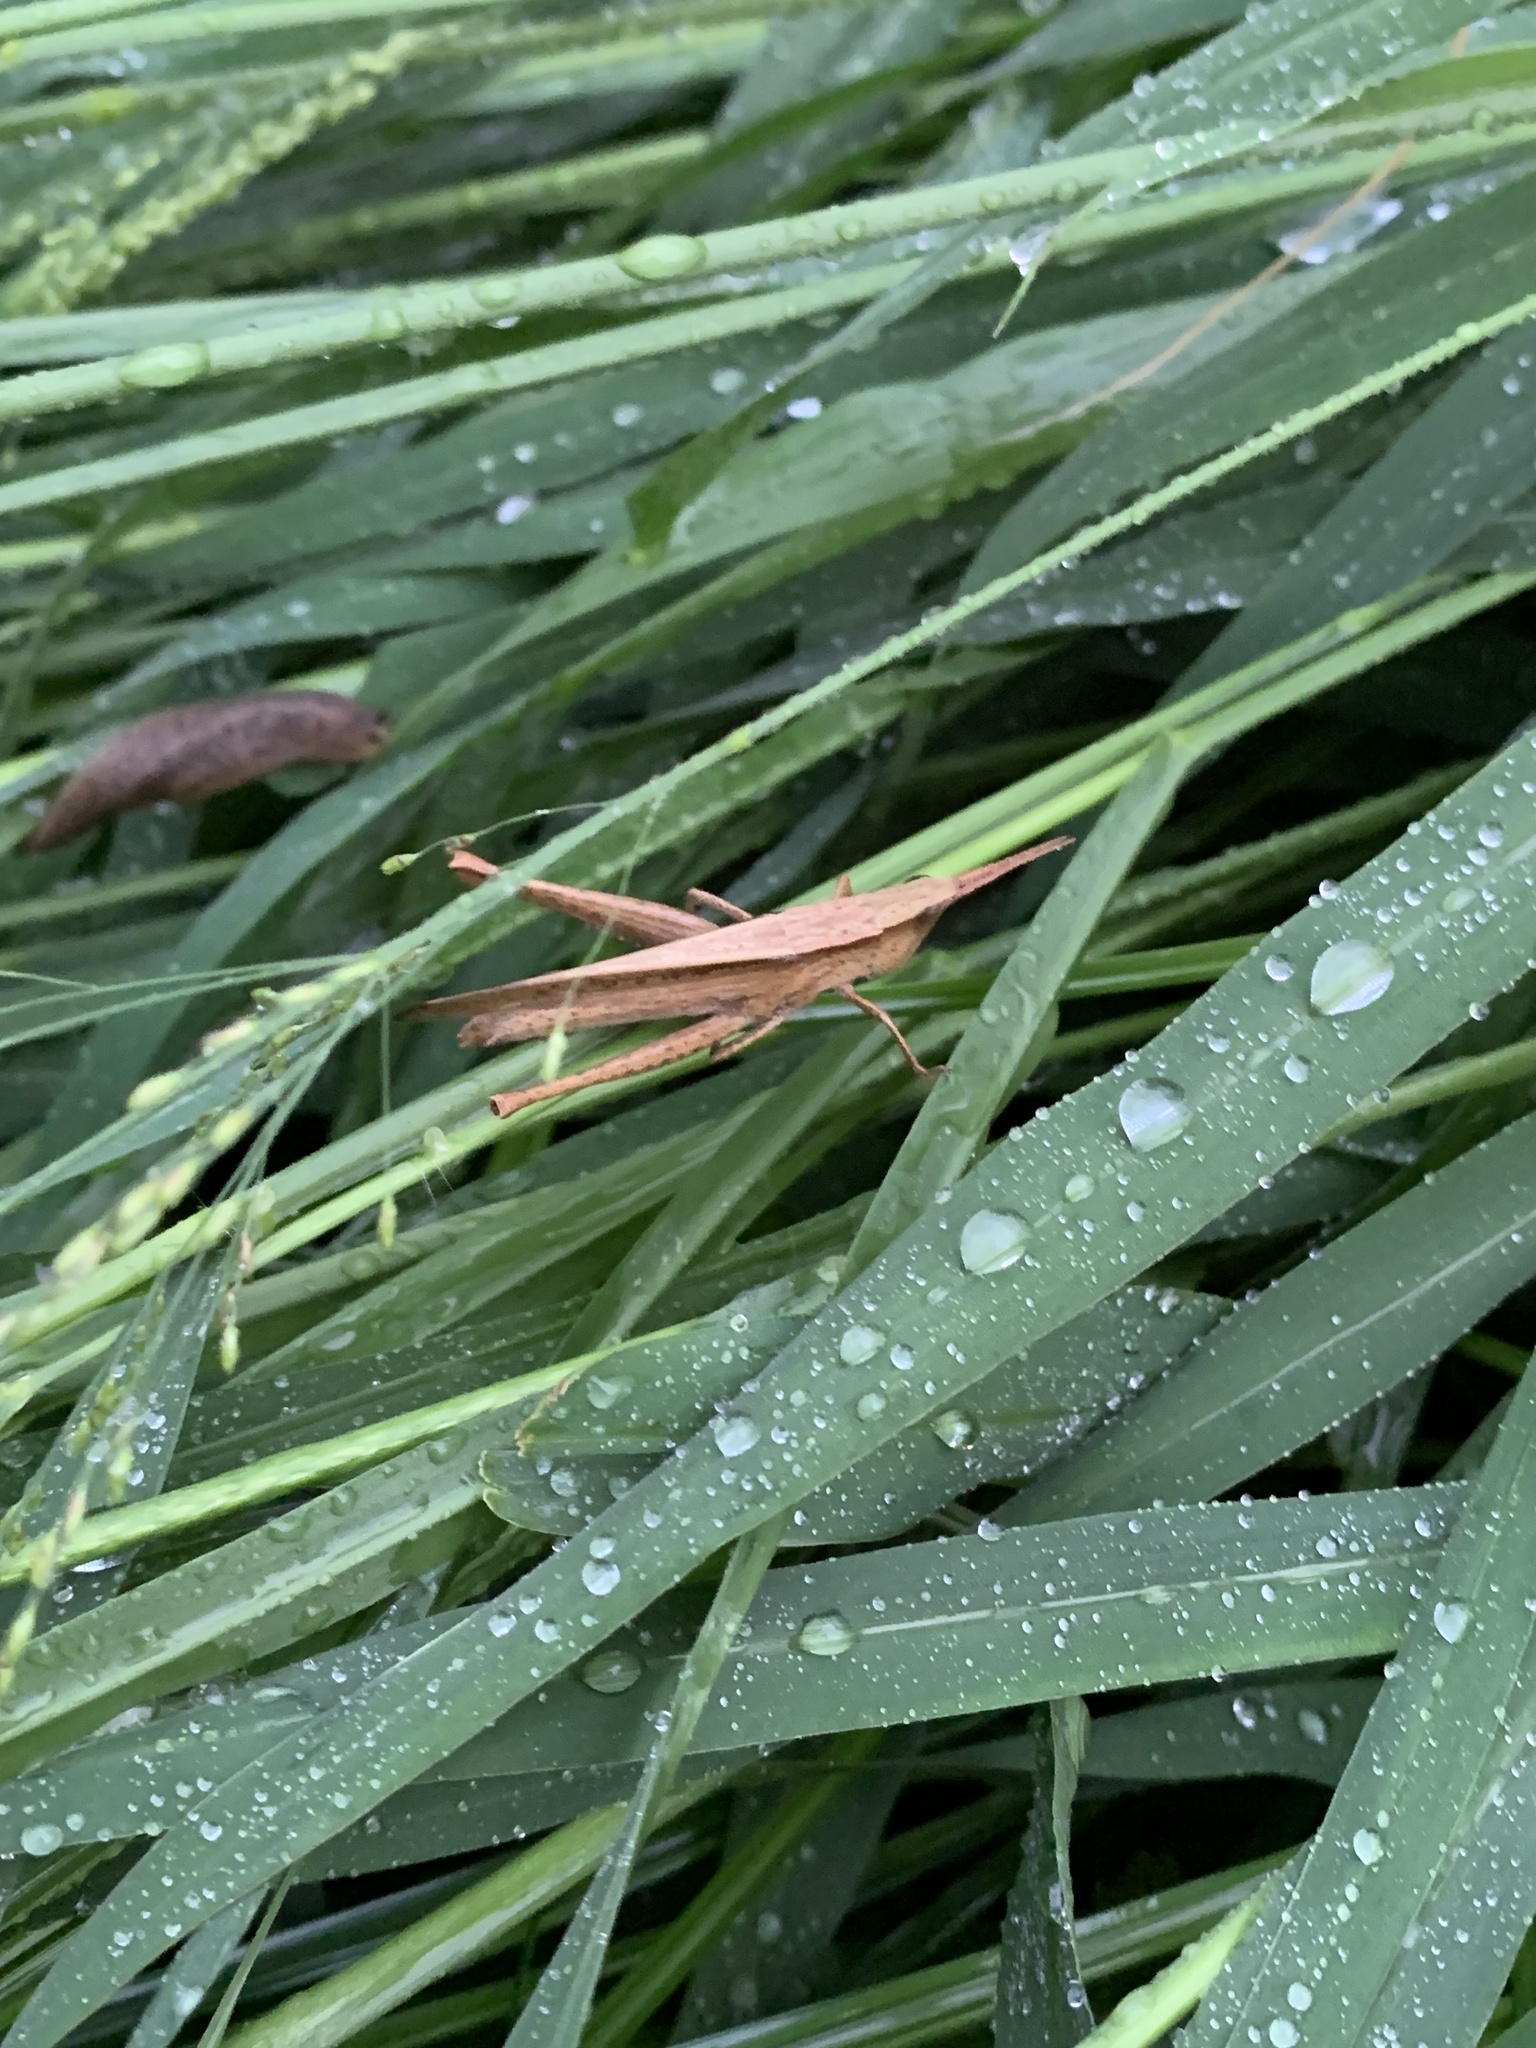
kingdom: Animalia
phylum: Arthropoda
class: Insecta
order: Orthoptera
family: Acrididae
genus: Metaleptea
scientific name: Metaleptea adspersa
